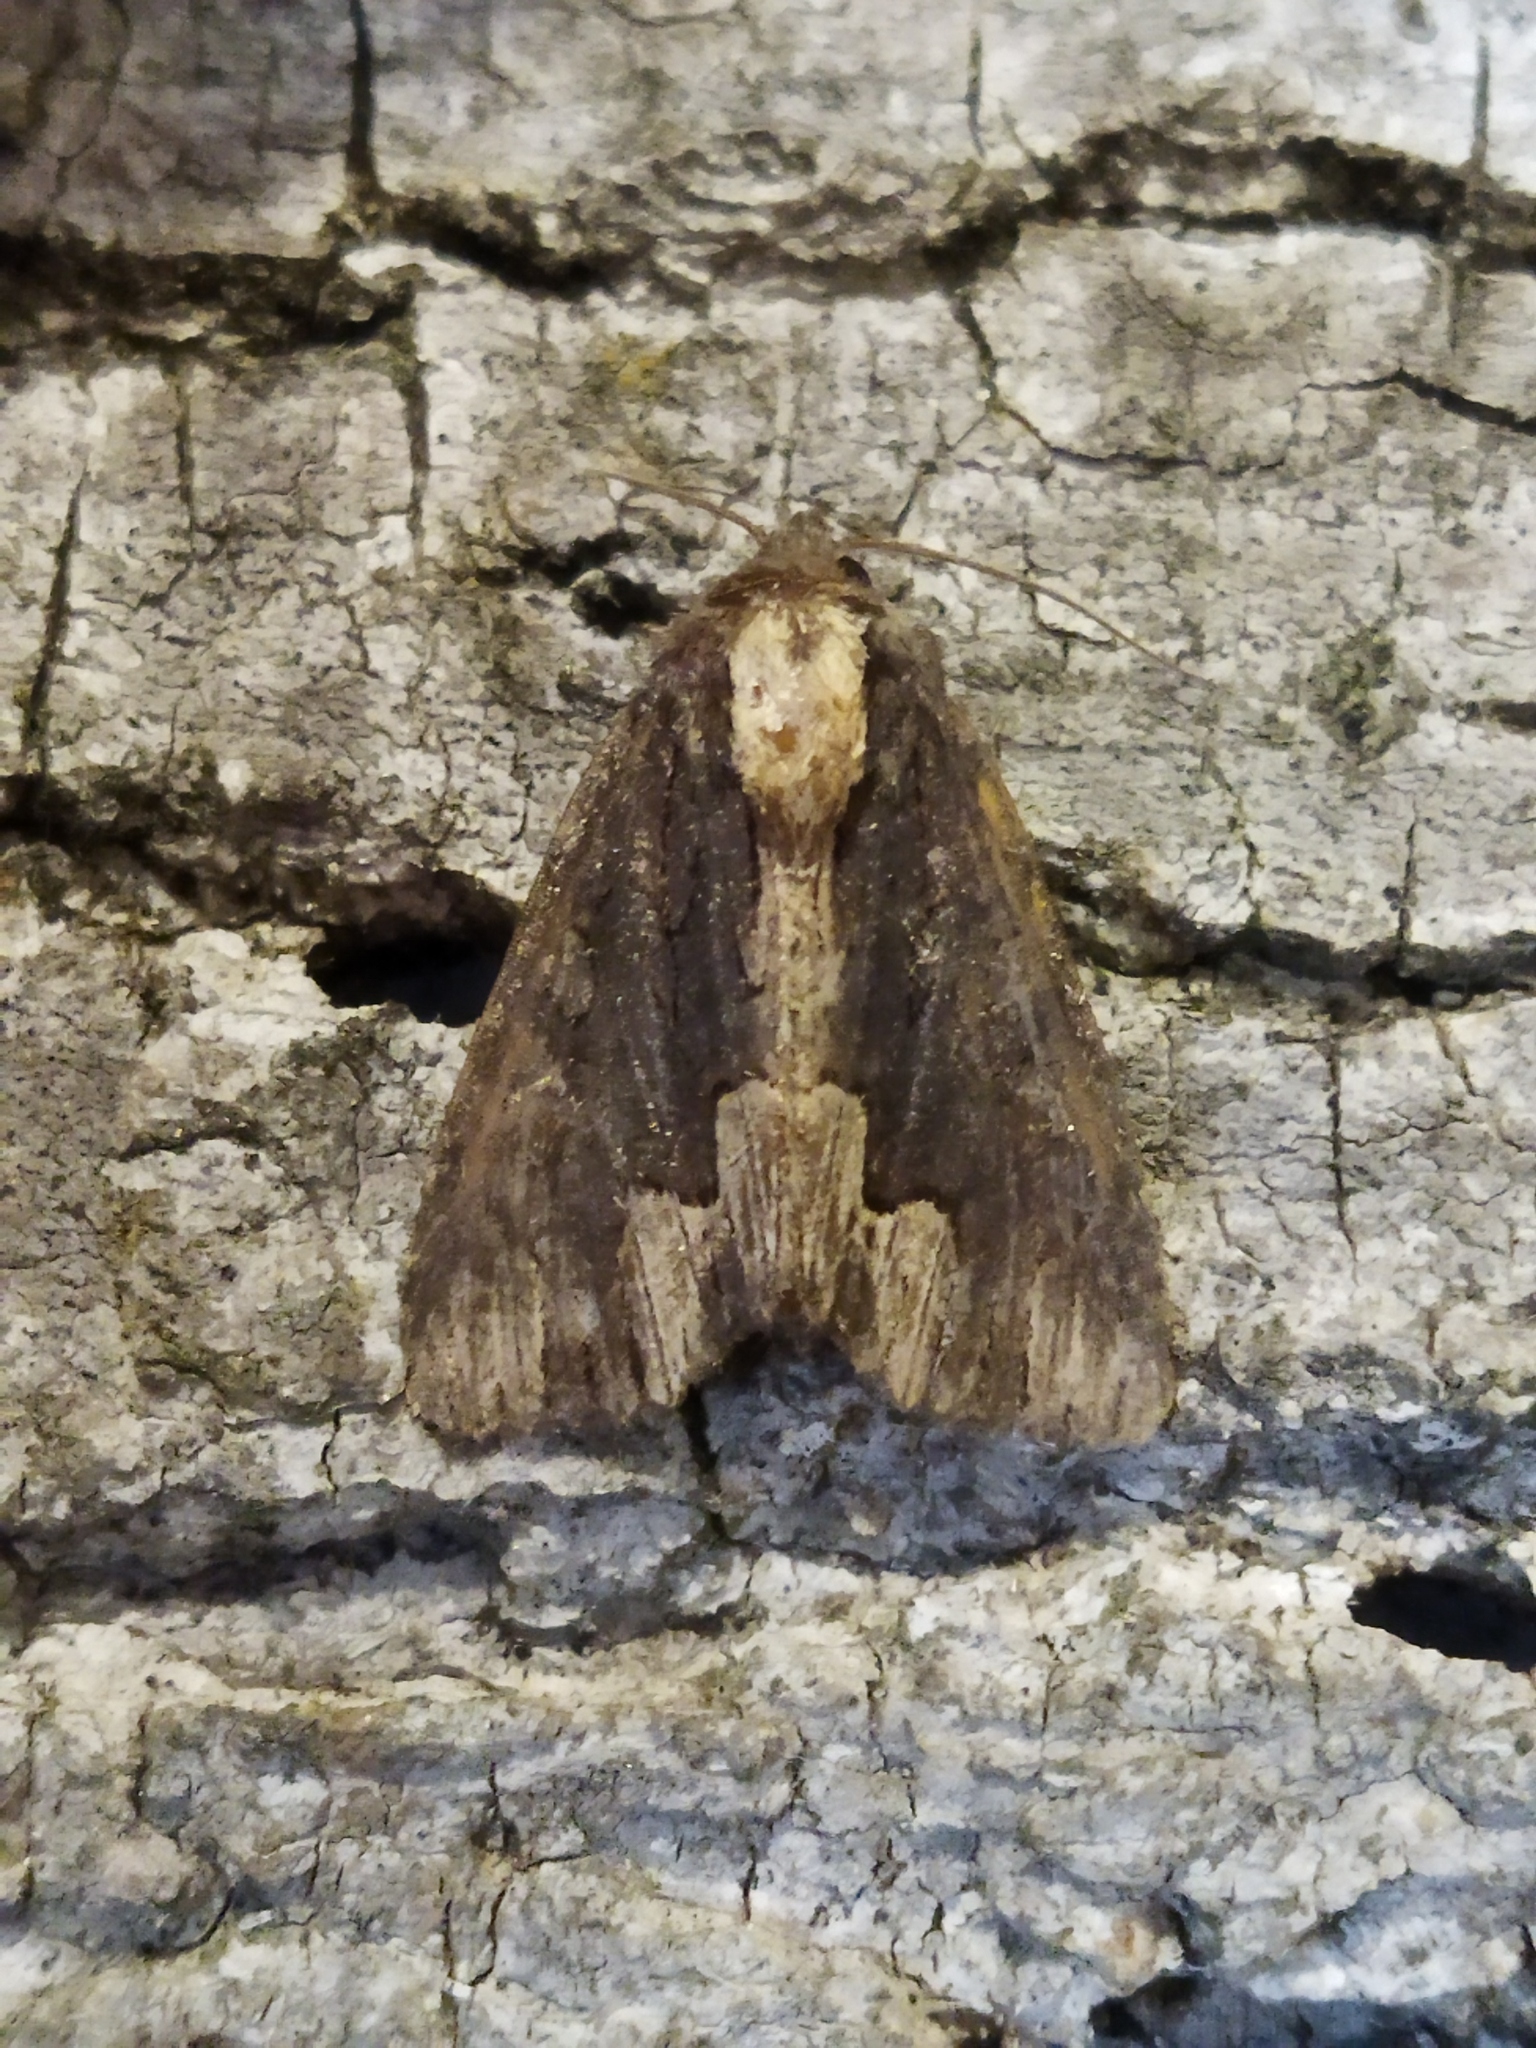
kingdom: Animalia
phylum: Arthropoda
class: Insecta
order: Lepidoptera
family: Noctuidae
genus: Dypterygia
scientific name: Dypterygia scabriuscula
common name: Bird's wing
